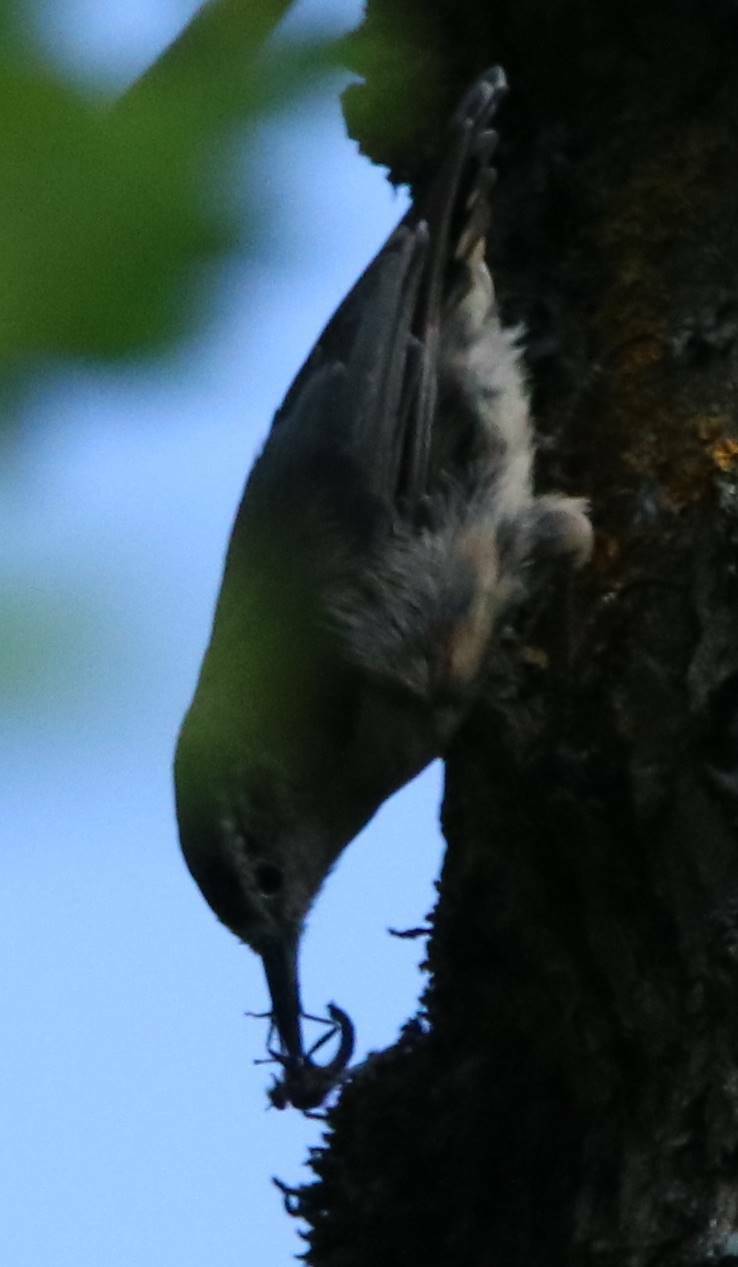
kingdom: Animalia
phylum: Chordata
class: Aves
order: Passeriformes
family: Sittidae
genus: Sitta
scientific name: Sitta ledanti
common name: Algerian nuthatch
